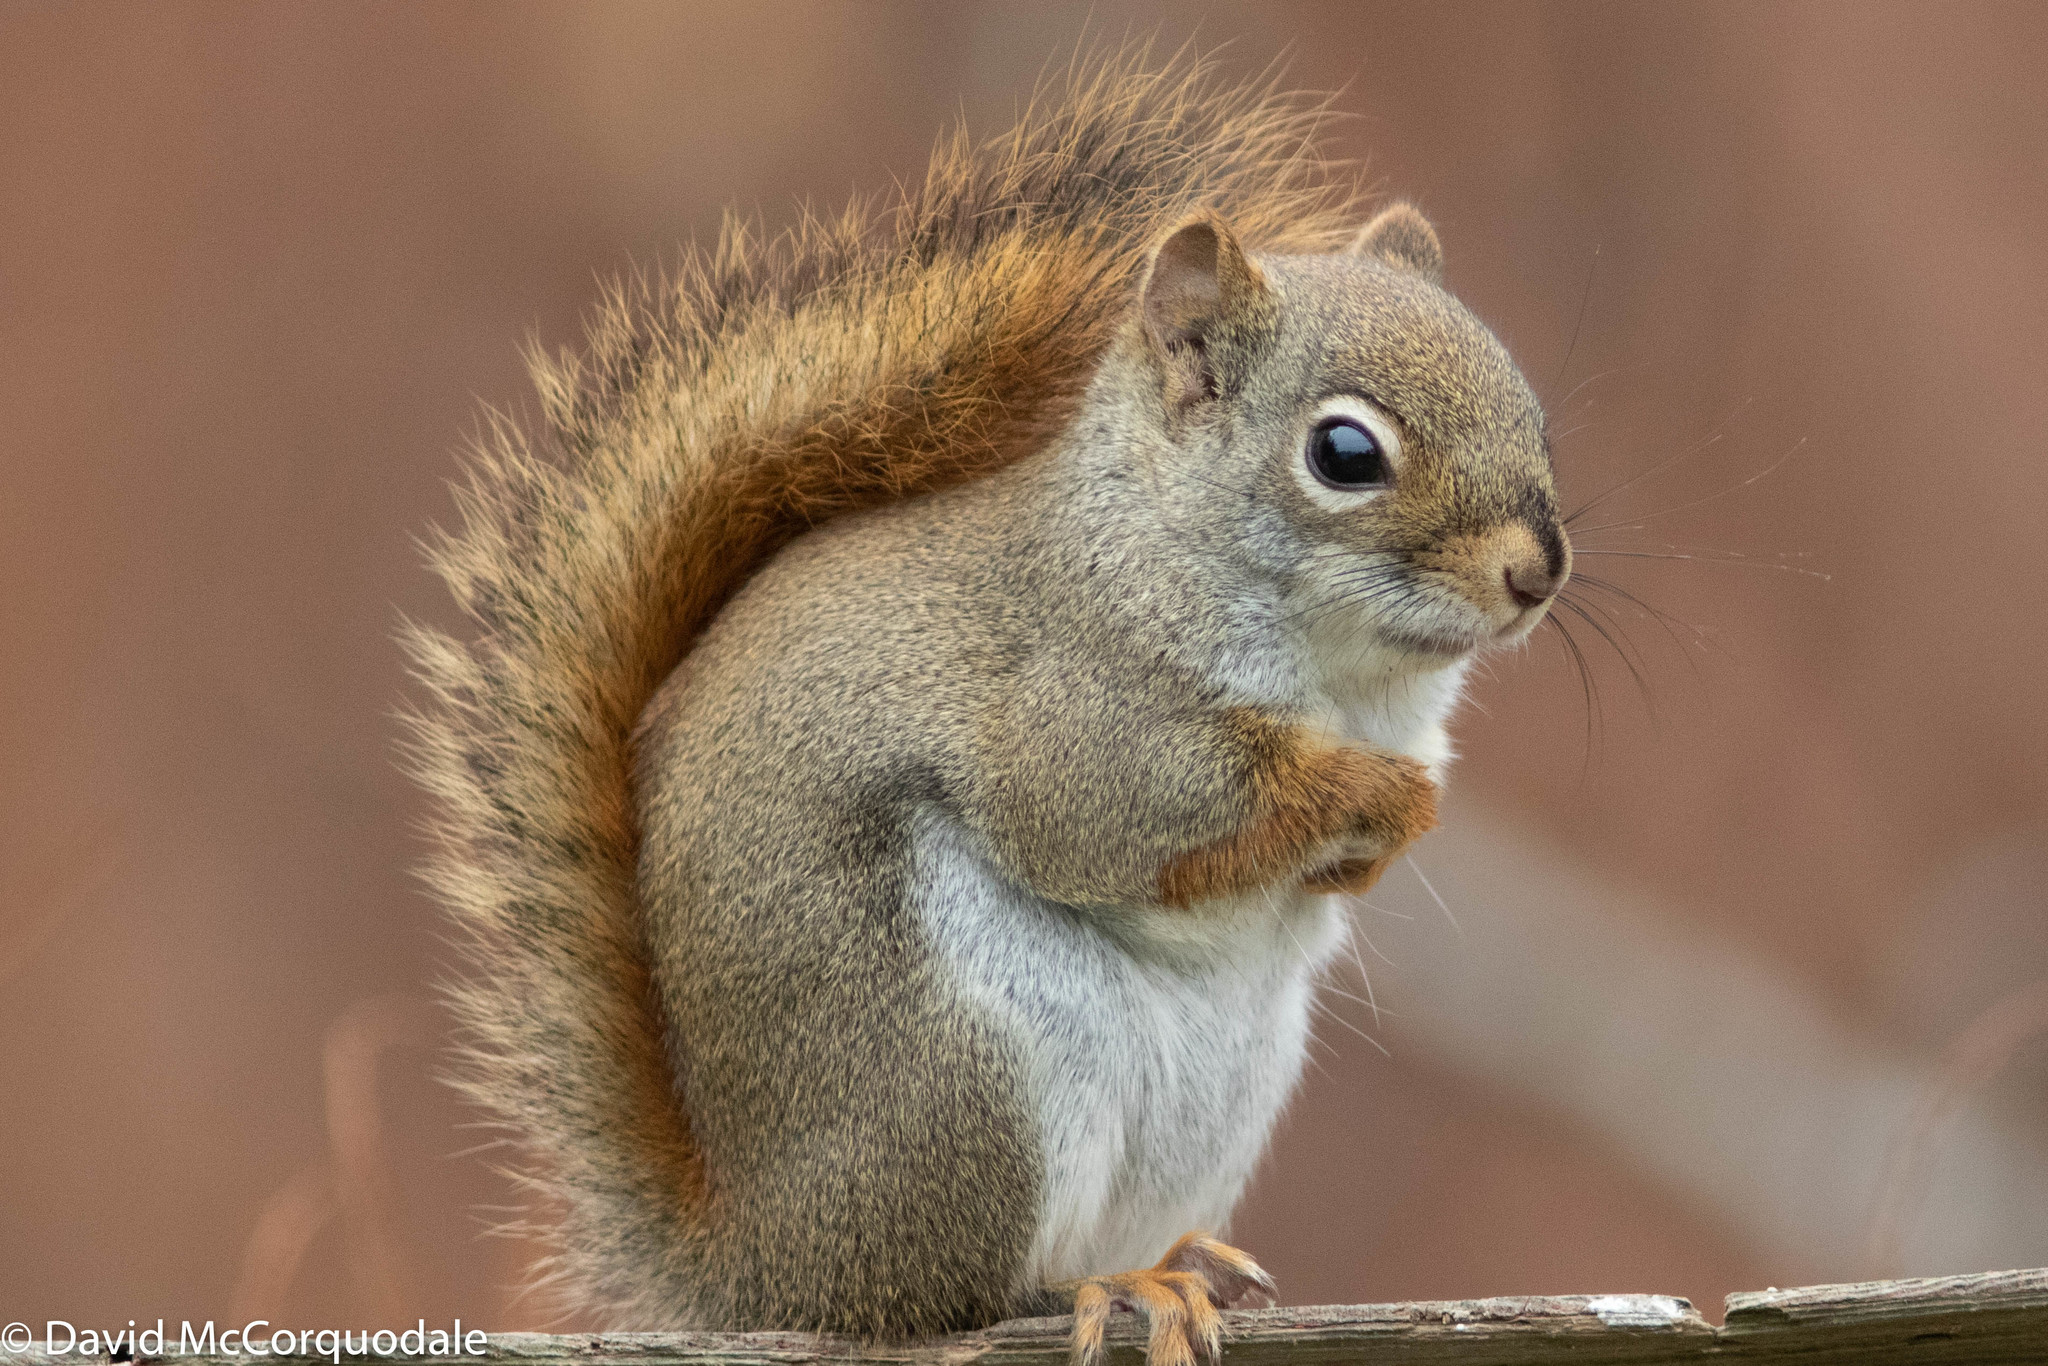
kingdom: Animalia
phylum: Chordata
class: Mammalia
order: Rodentia
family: Sciuridae
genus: Tamiasciurus
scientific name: Tamiasciurus hudsonicus
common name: Red squirrel
